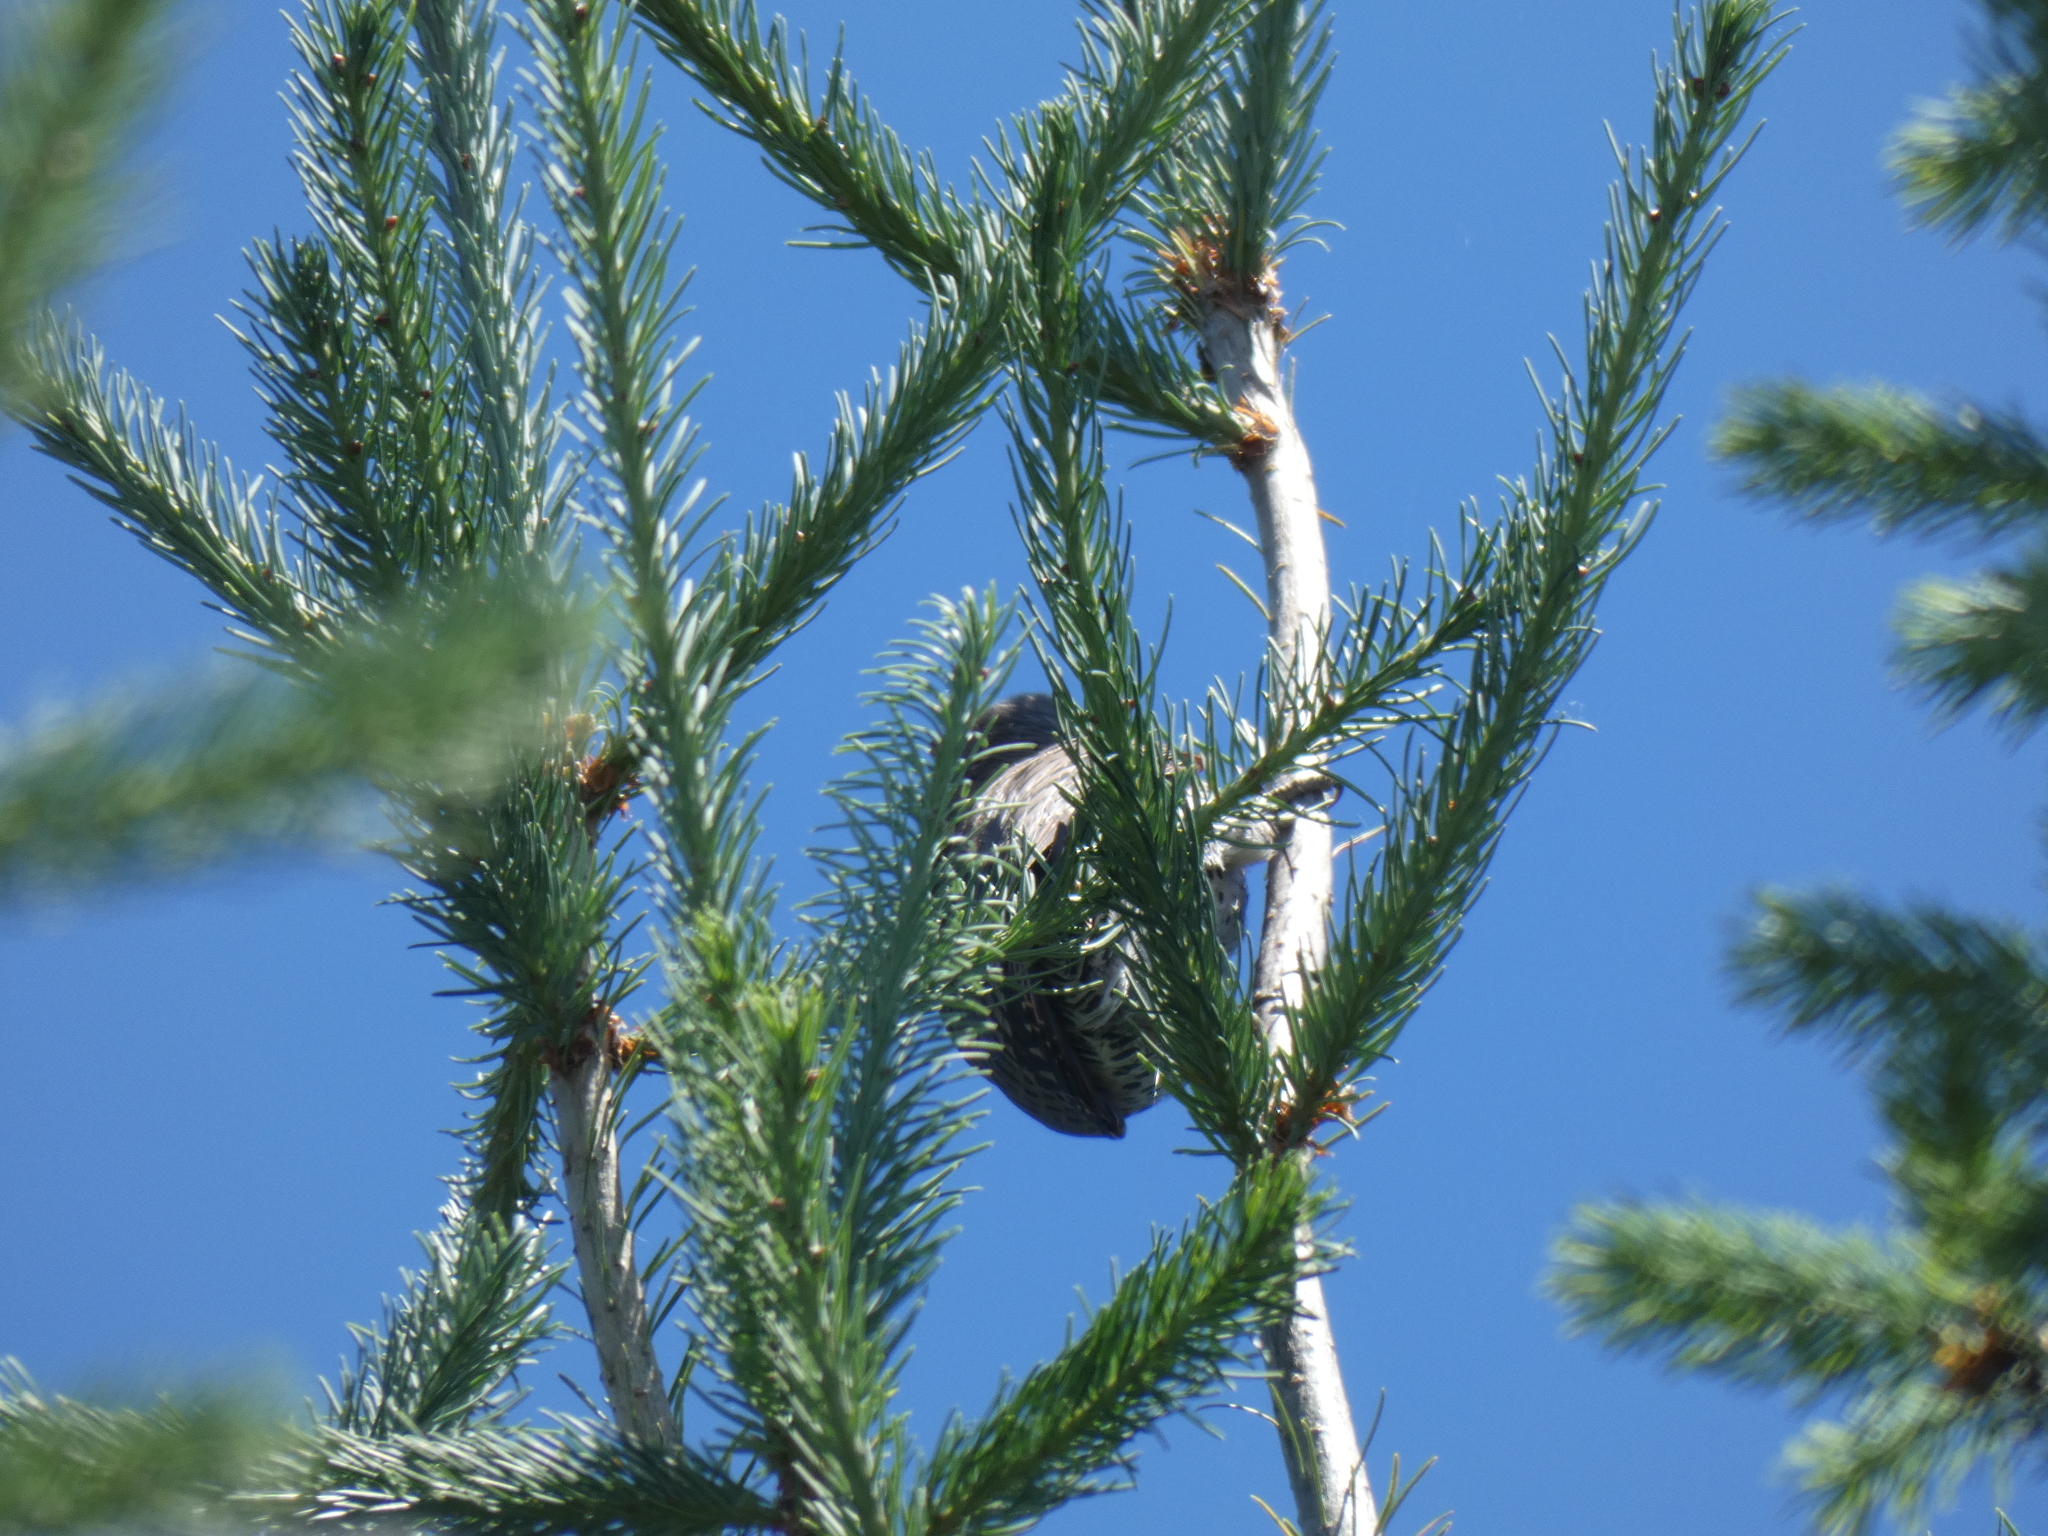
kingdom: Animalia
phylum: Chordata
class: Aves
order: Piciformes
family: Picidae
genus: Colaptes
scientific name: Colaptes auratus
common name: Northern flicker
